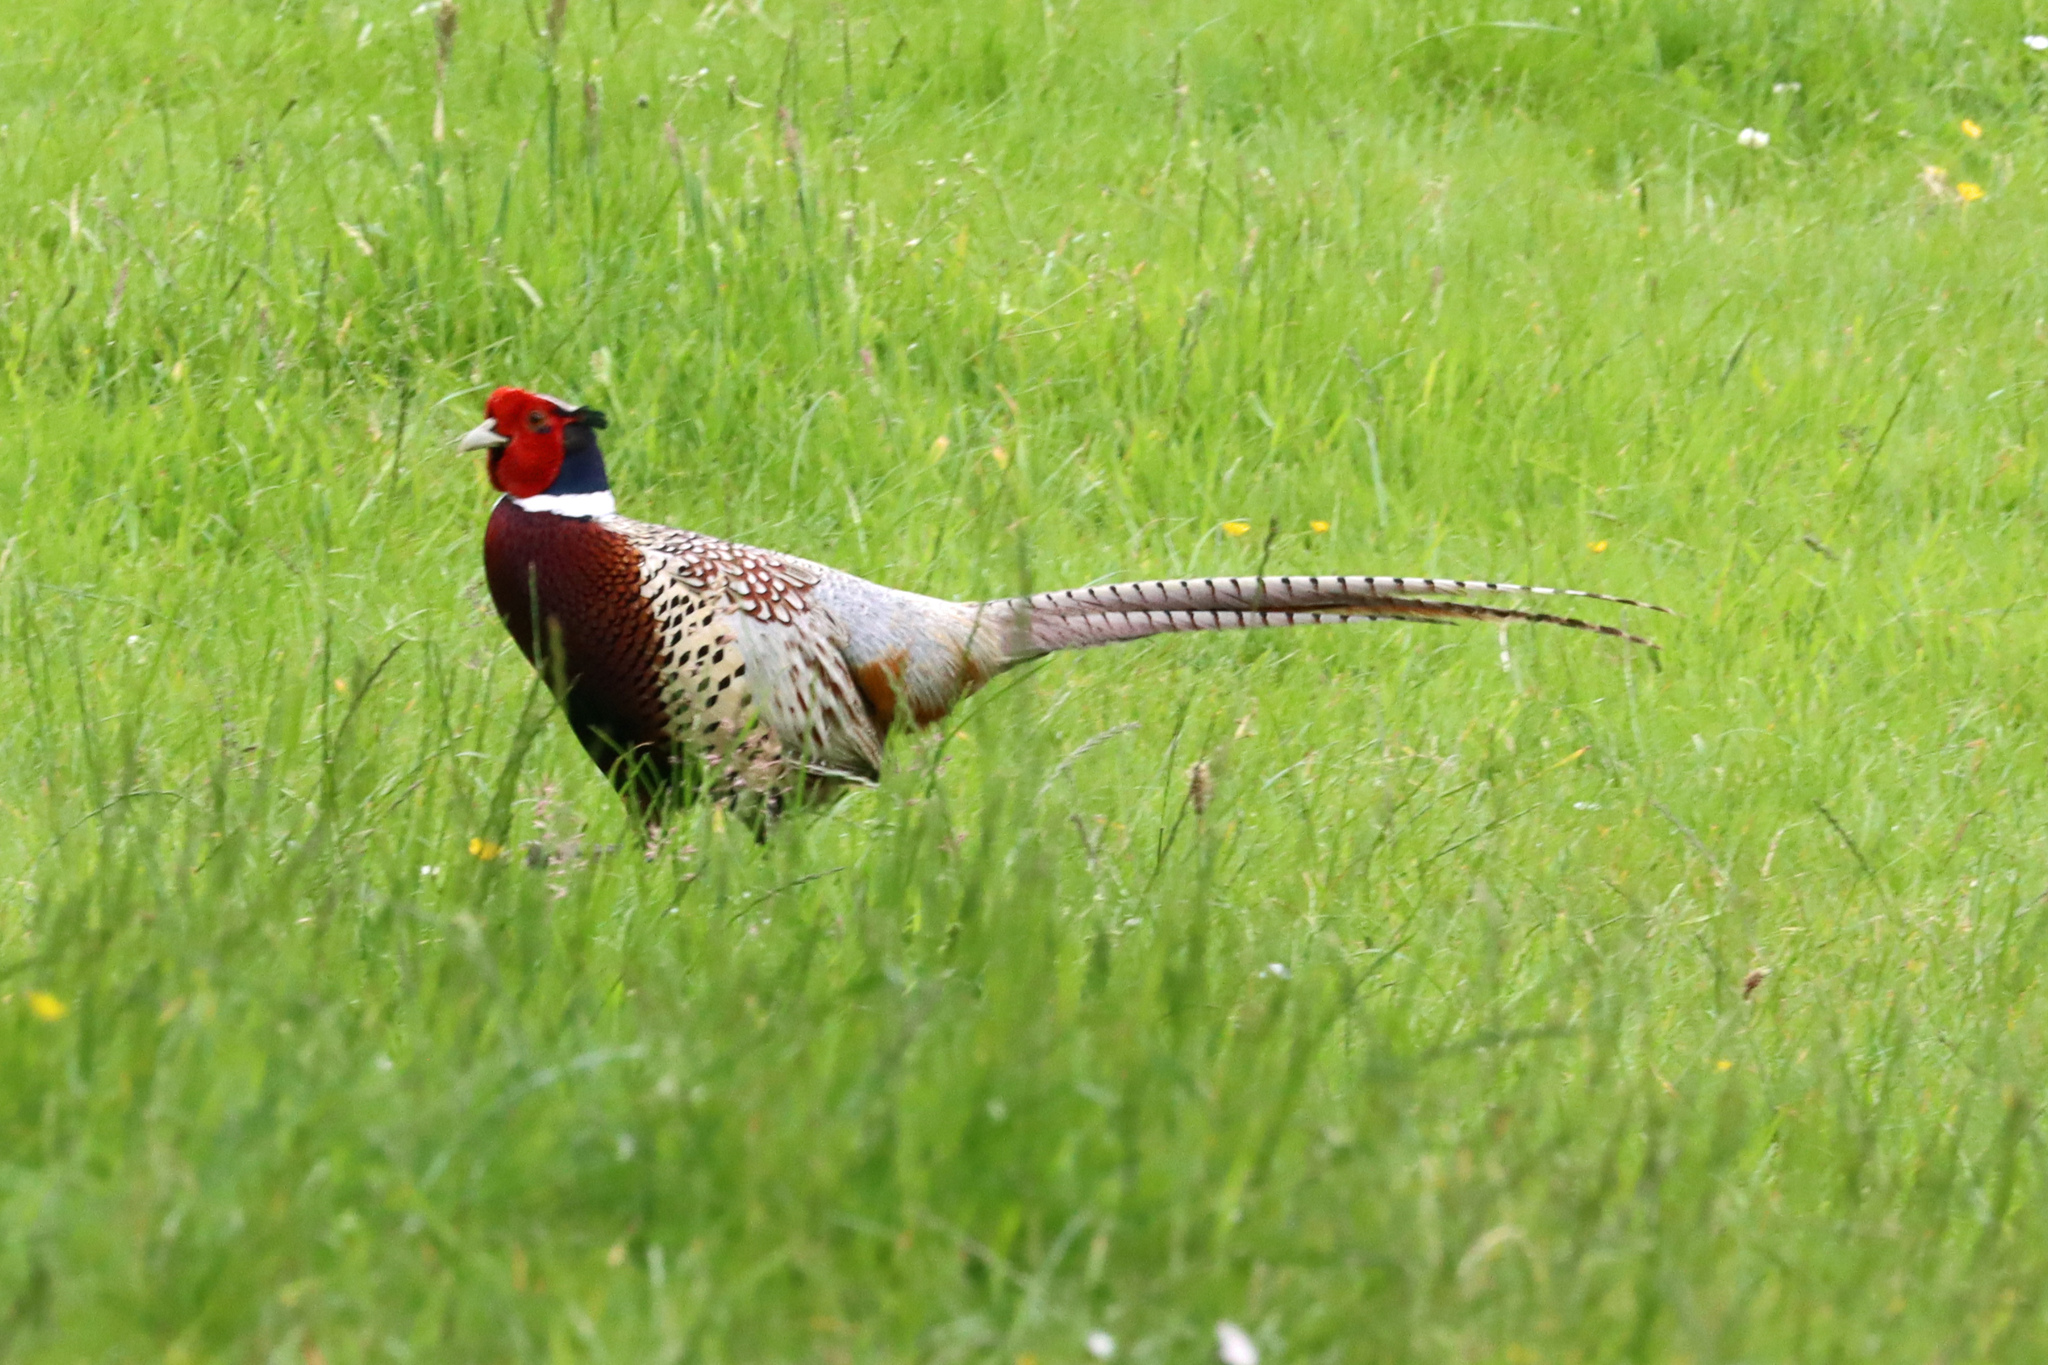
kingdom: Animalia
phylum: Chordata
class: Aves
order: Galliformes
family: Phasianidae
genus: Phasianus
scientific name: Phasianus colchicus
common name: Common pheasant
